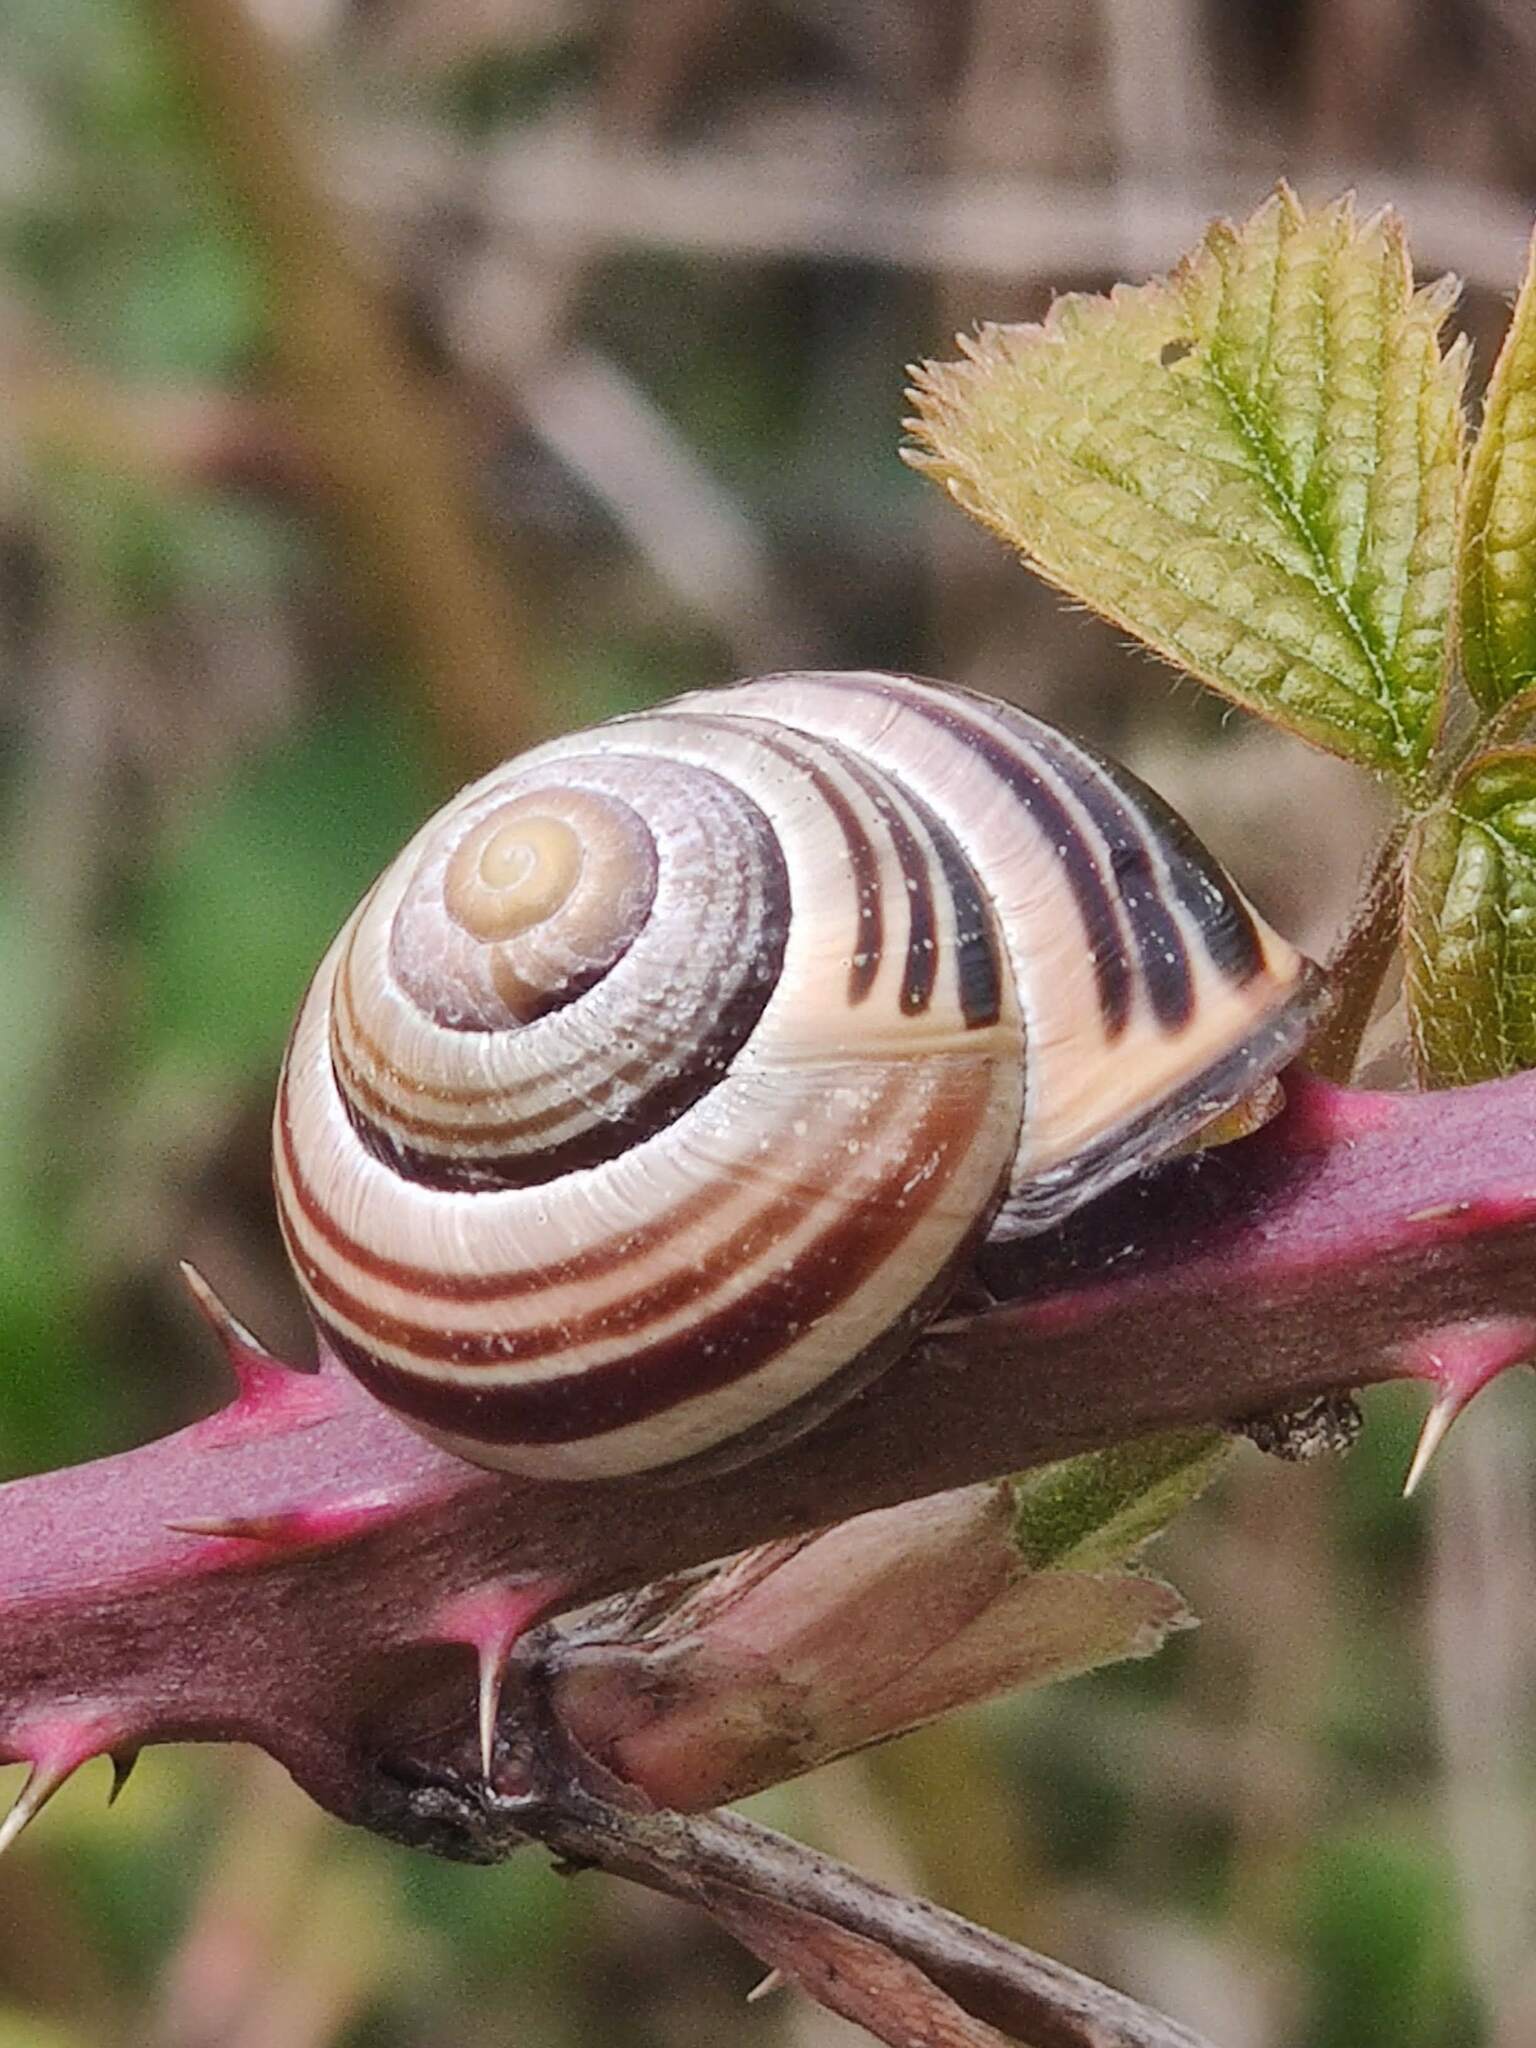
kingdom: Animalia
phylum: Mollusca
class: Gastropoda
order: Stylommatophora
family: Helicidae
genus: Cepaea
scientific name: Cepaea nemoralis
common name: Grovesnail
